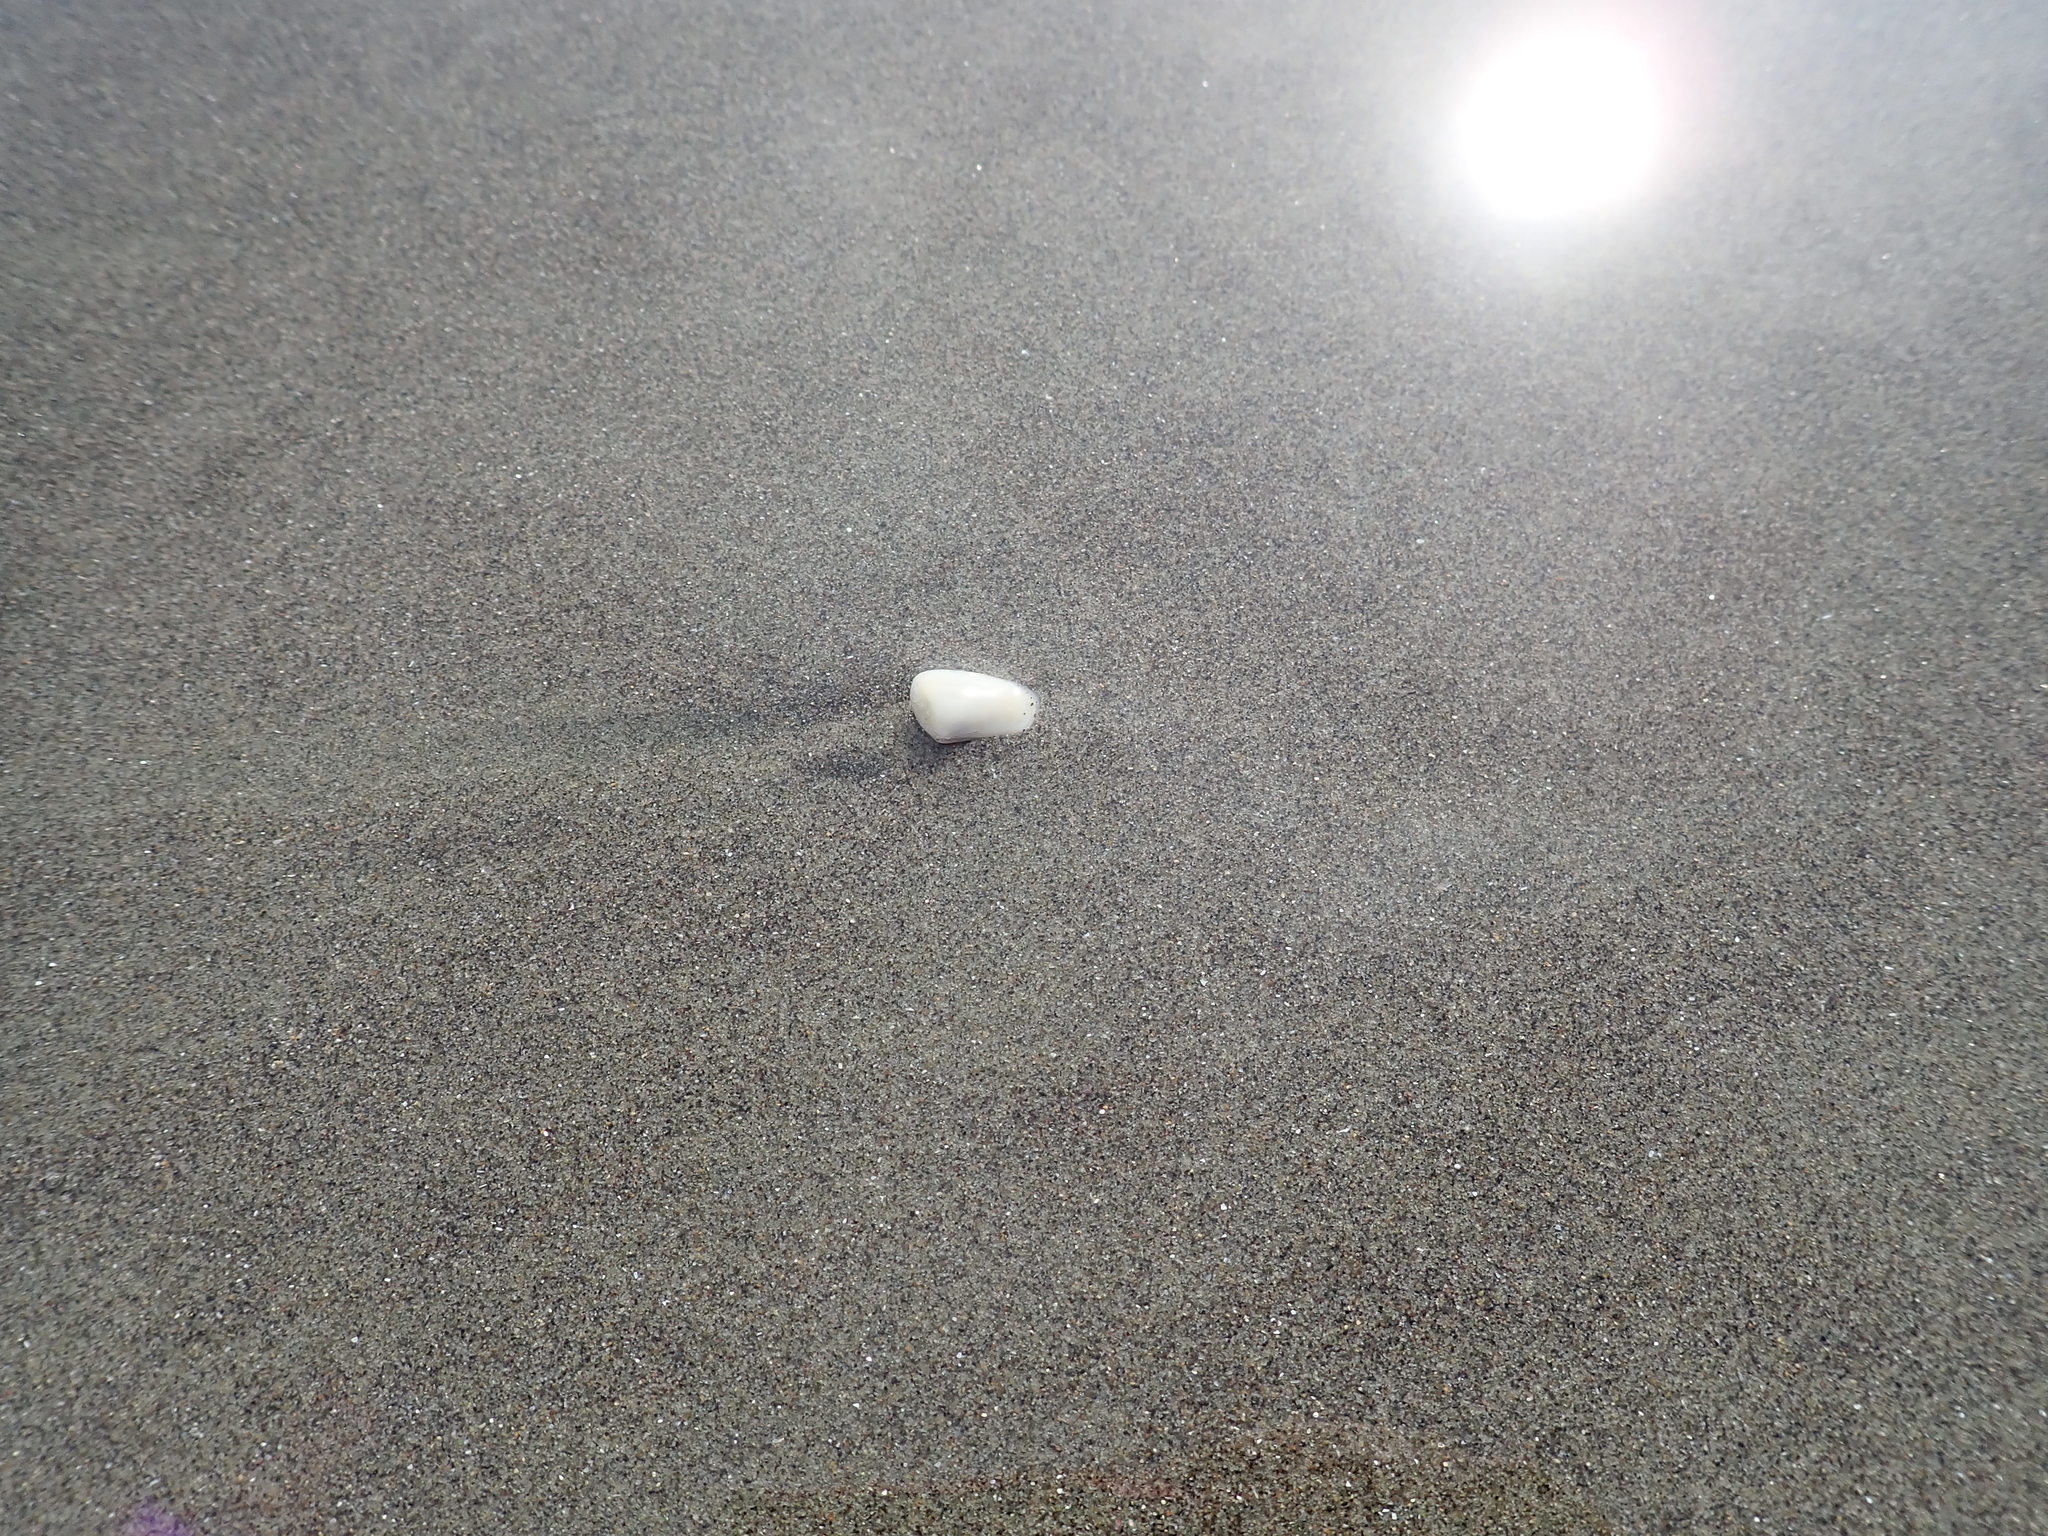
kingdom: Animalia
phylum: Mollusca
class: Bivalvia
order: Venerida
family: Mesodesmatidae
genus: Paphies
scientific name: Paphies donacina
